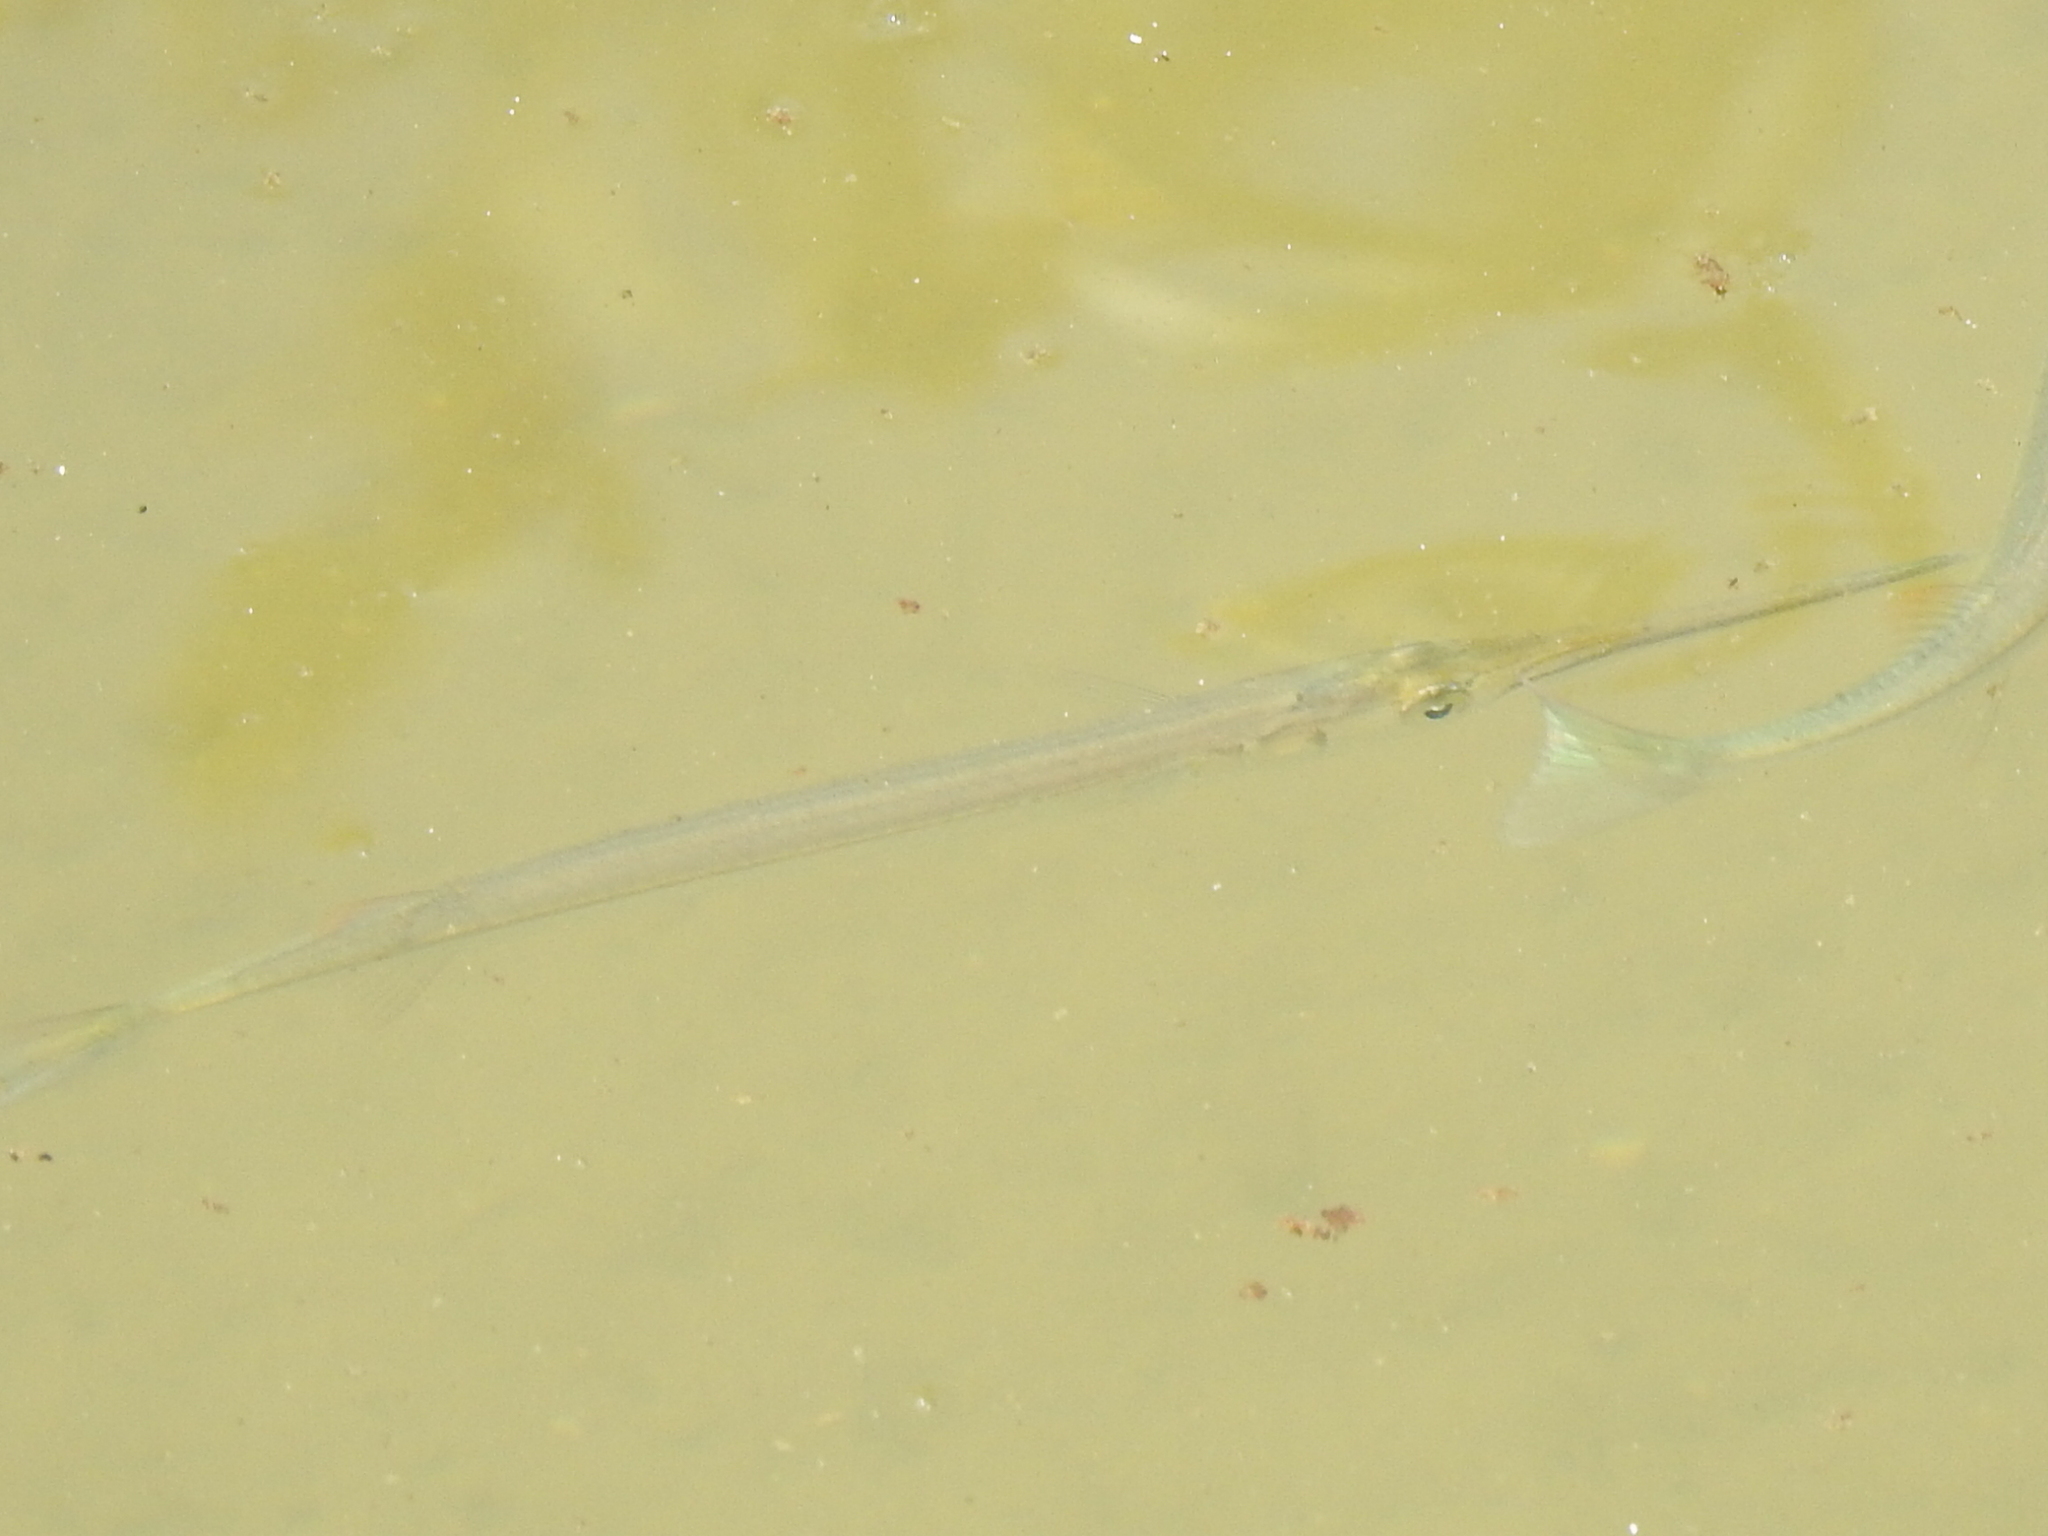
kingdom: Animalia
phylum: Chordata
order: Beloniformes
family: Belonidae
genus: Strongylura
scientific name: Strongylura marina
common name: Atlantic needlefish
